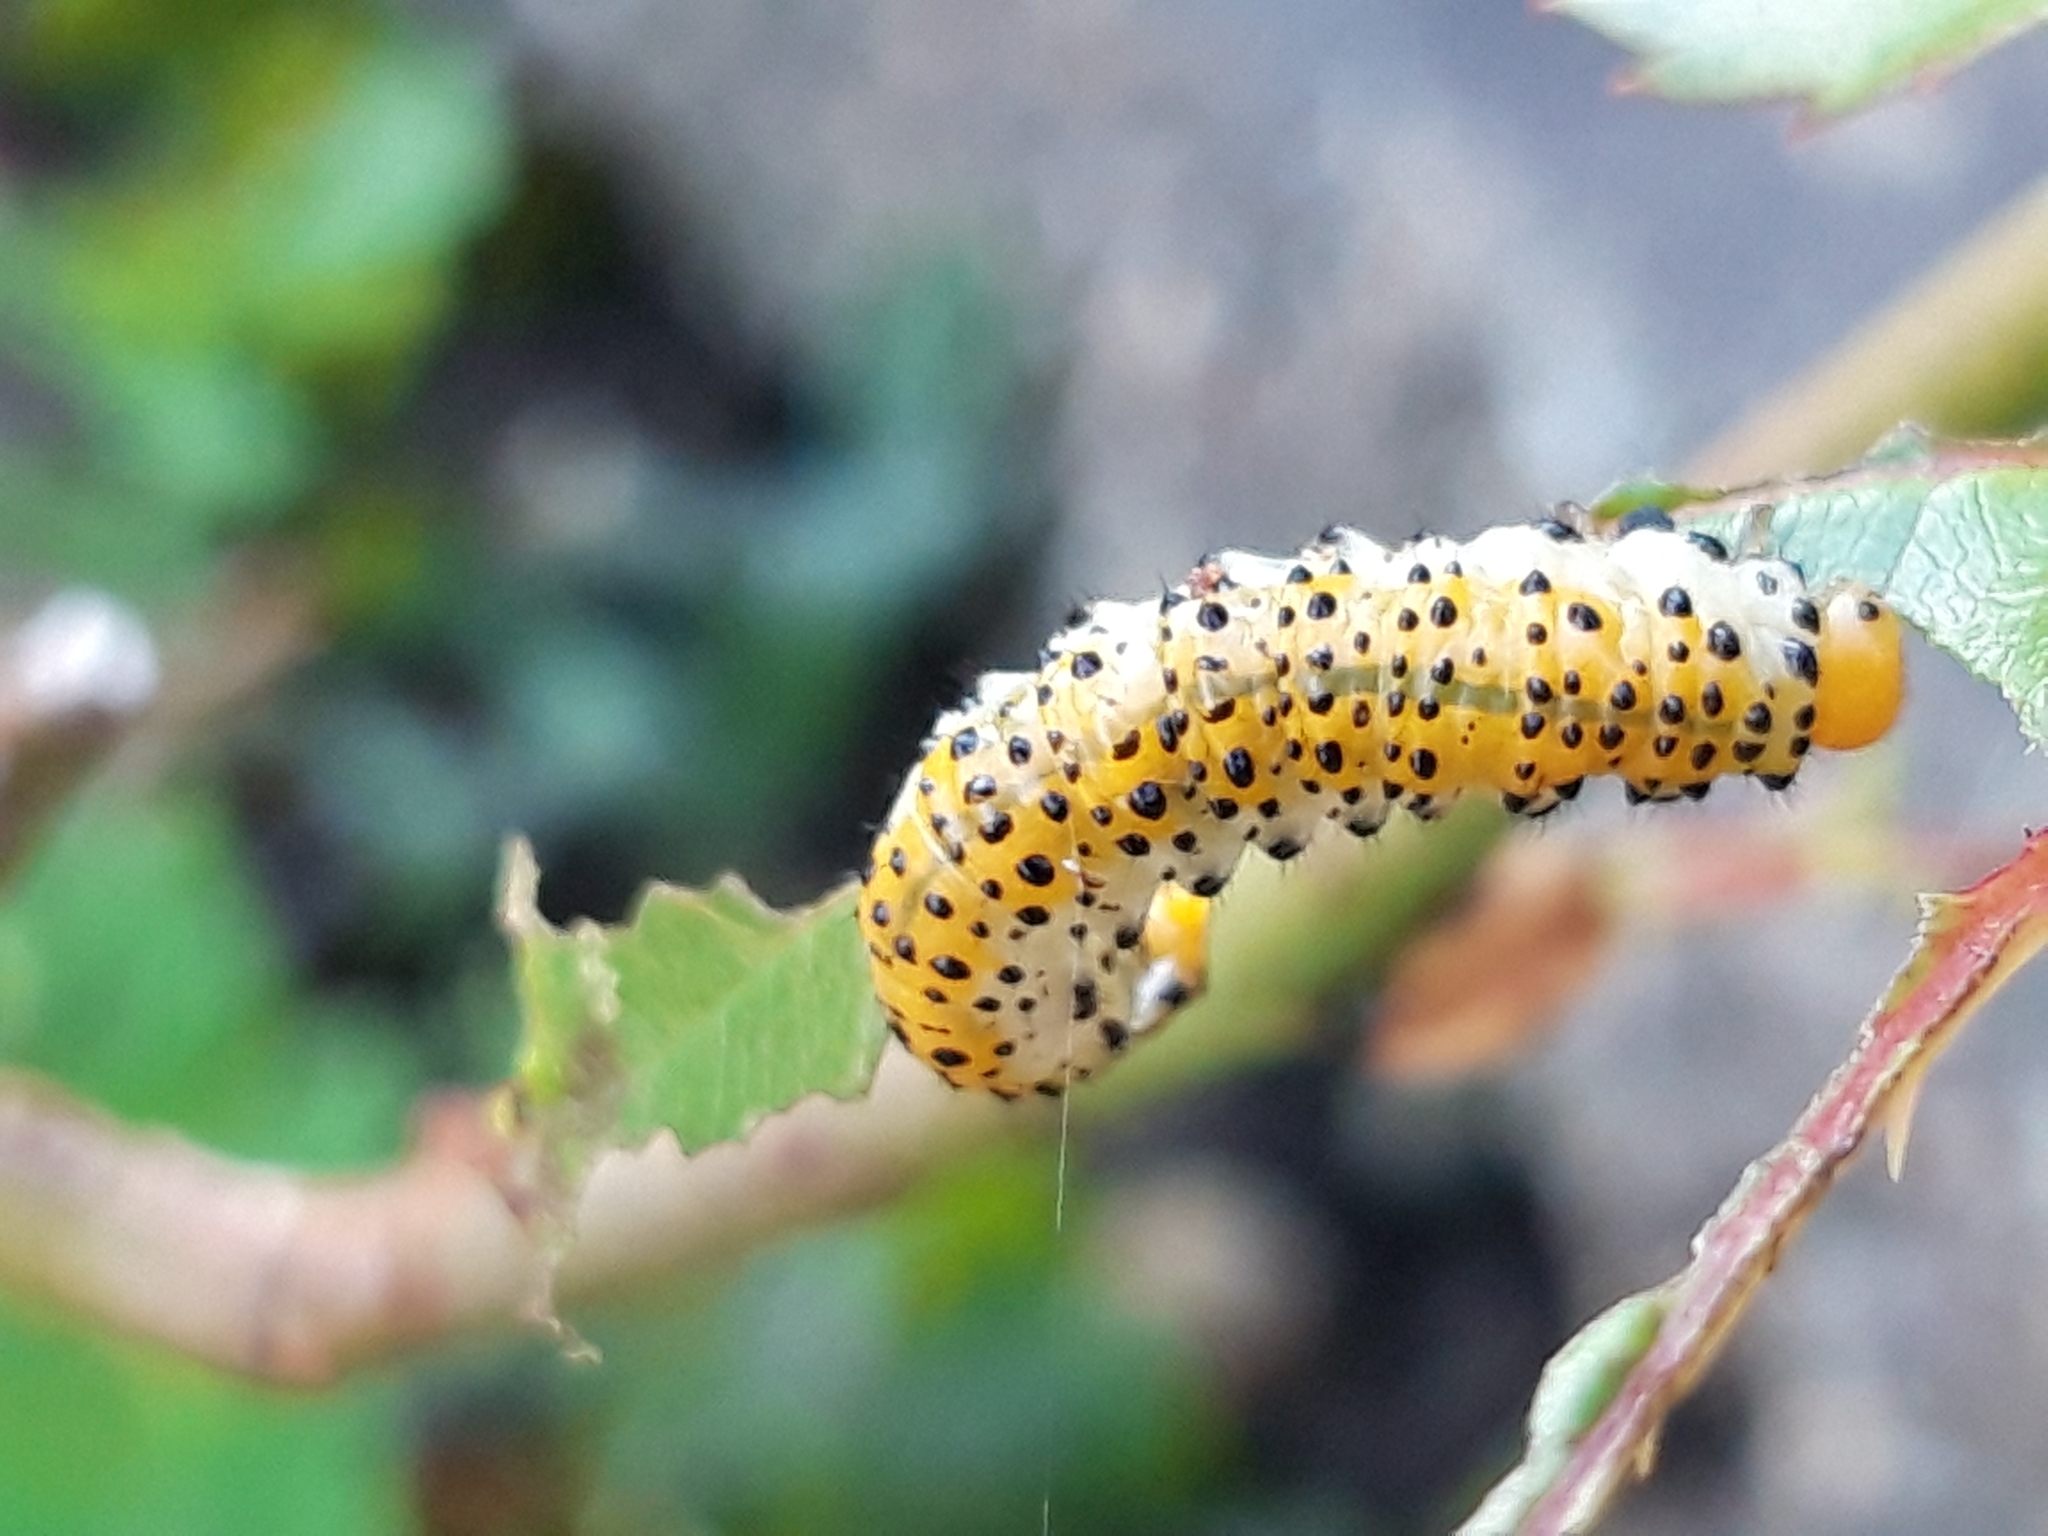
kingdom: Animalia
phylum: Arthropoda
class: Insecta
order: Hymenoptera
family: Argidae
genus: Arge
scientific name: Arge ochropus
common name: Argid sawfly
